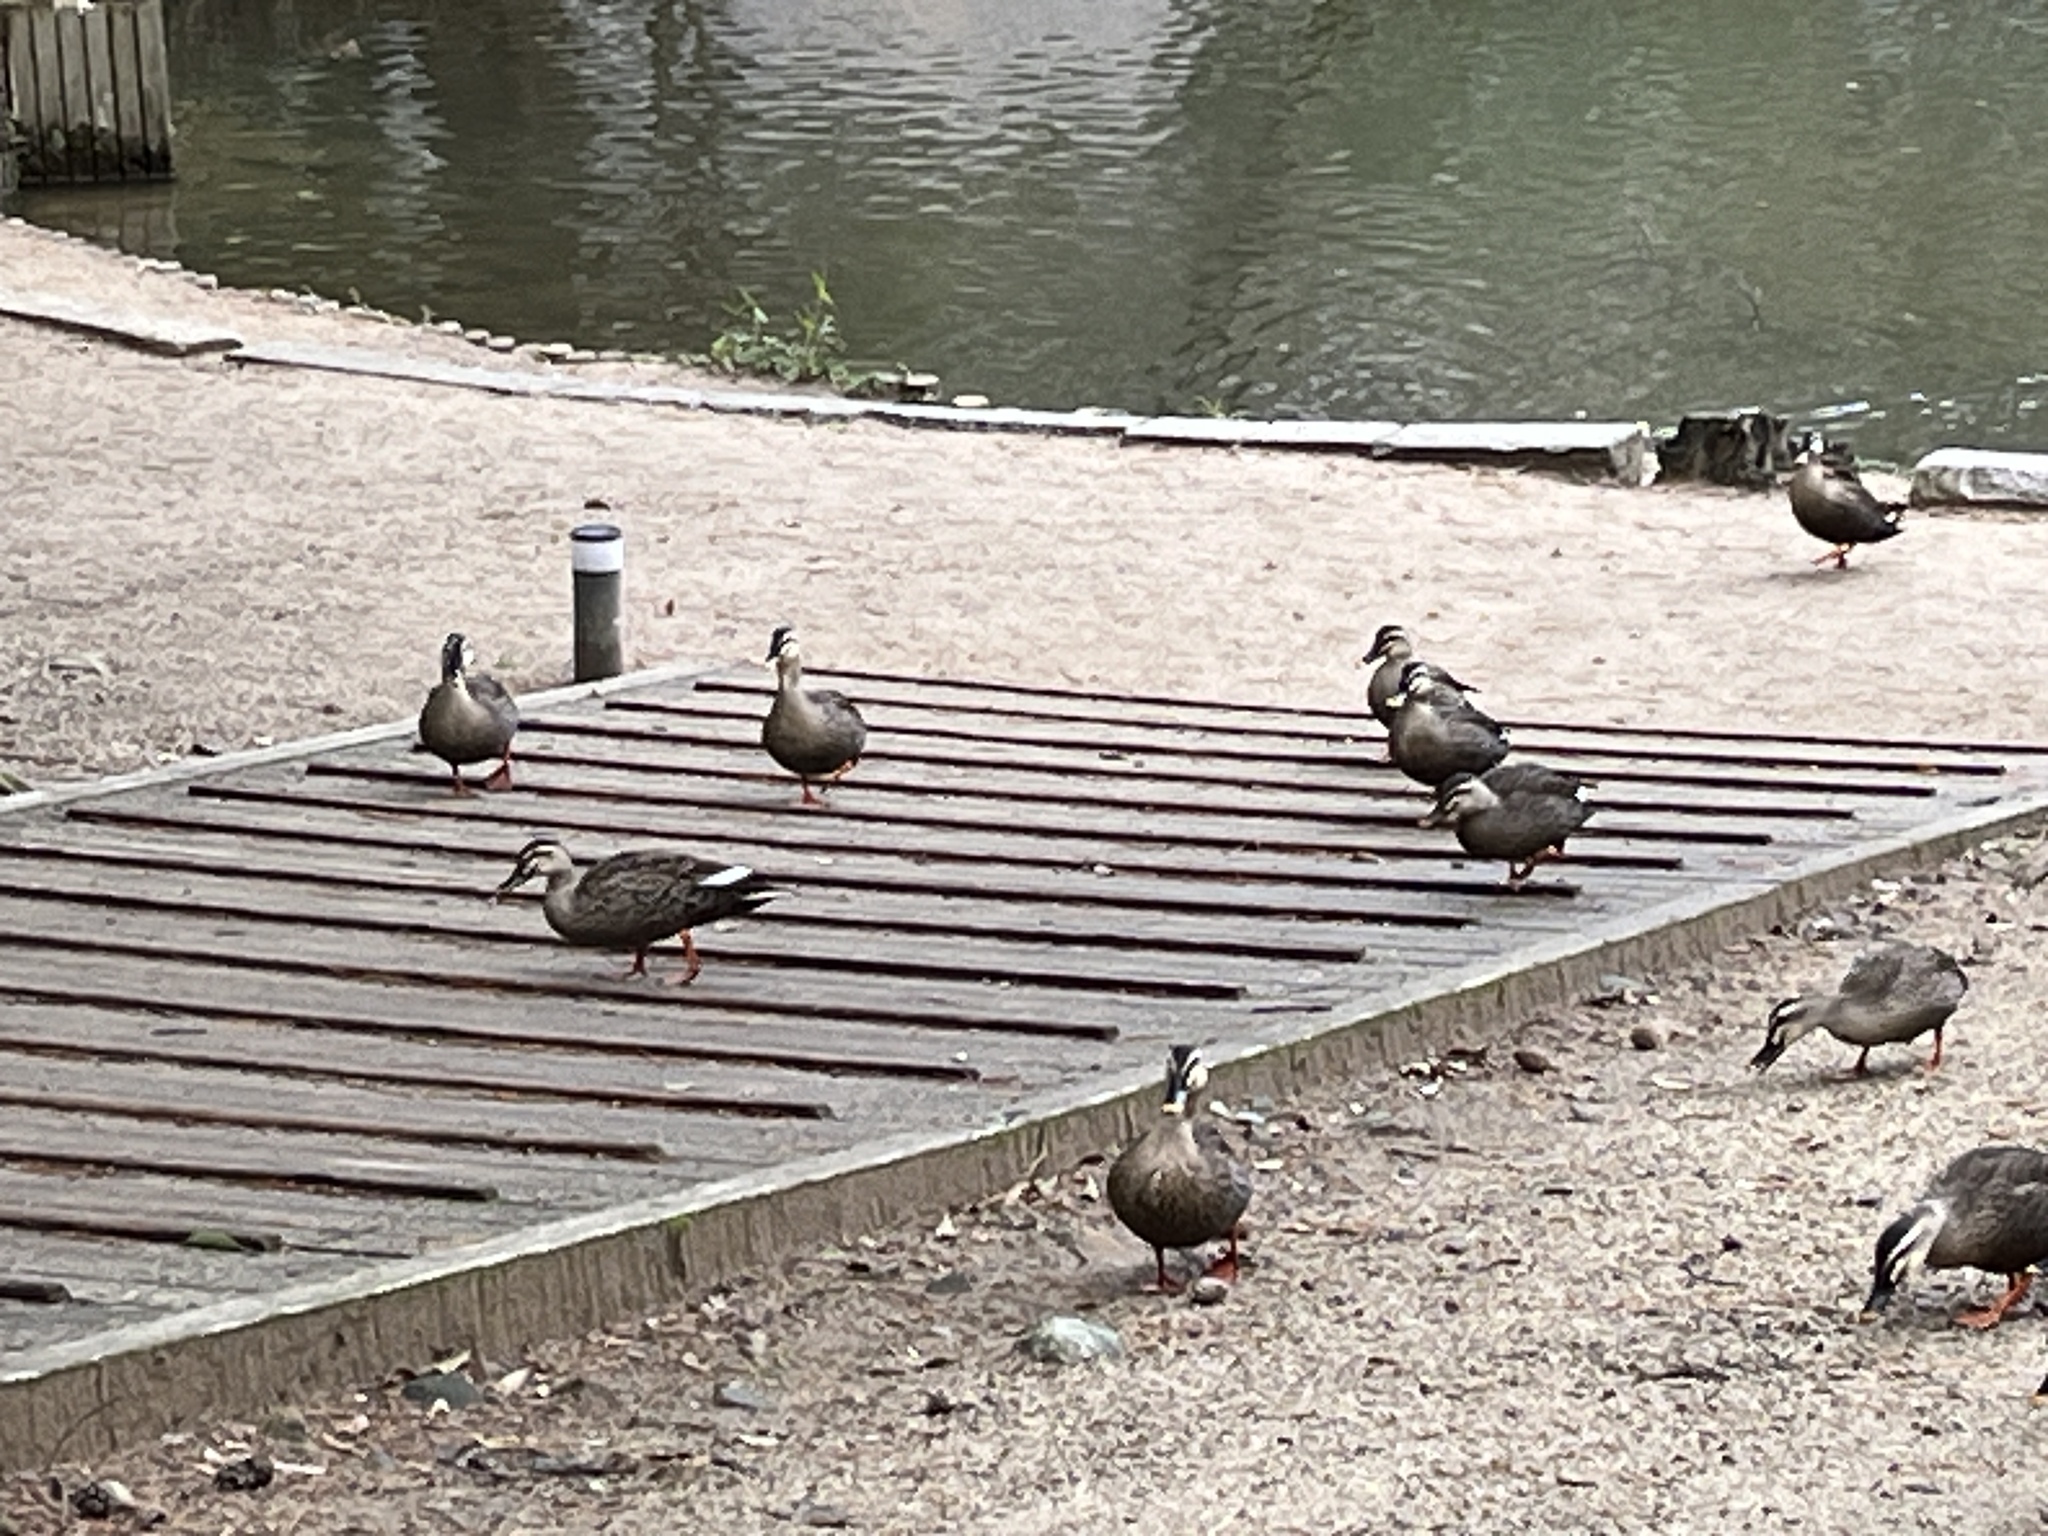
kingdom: Animalia
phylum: Chordata
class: Aves
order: Anseriformes
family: Anatidae
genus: Anas
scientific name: Anas zonorhyncha
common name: Eastern spot-billed duck
